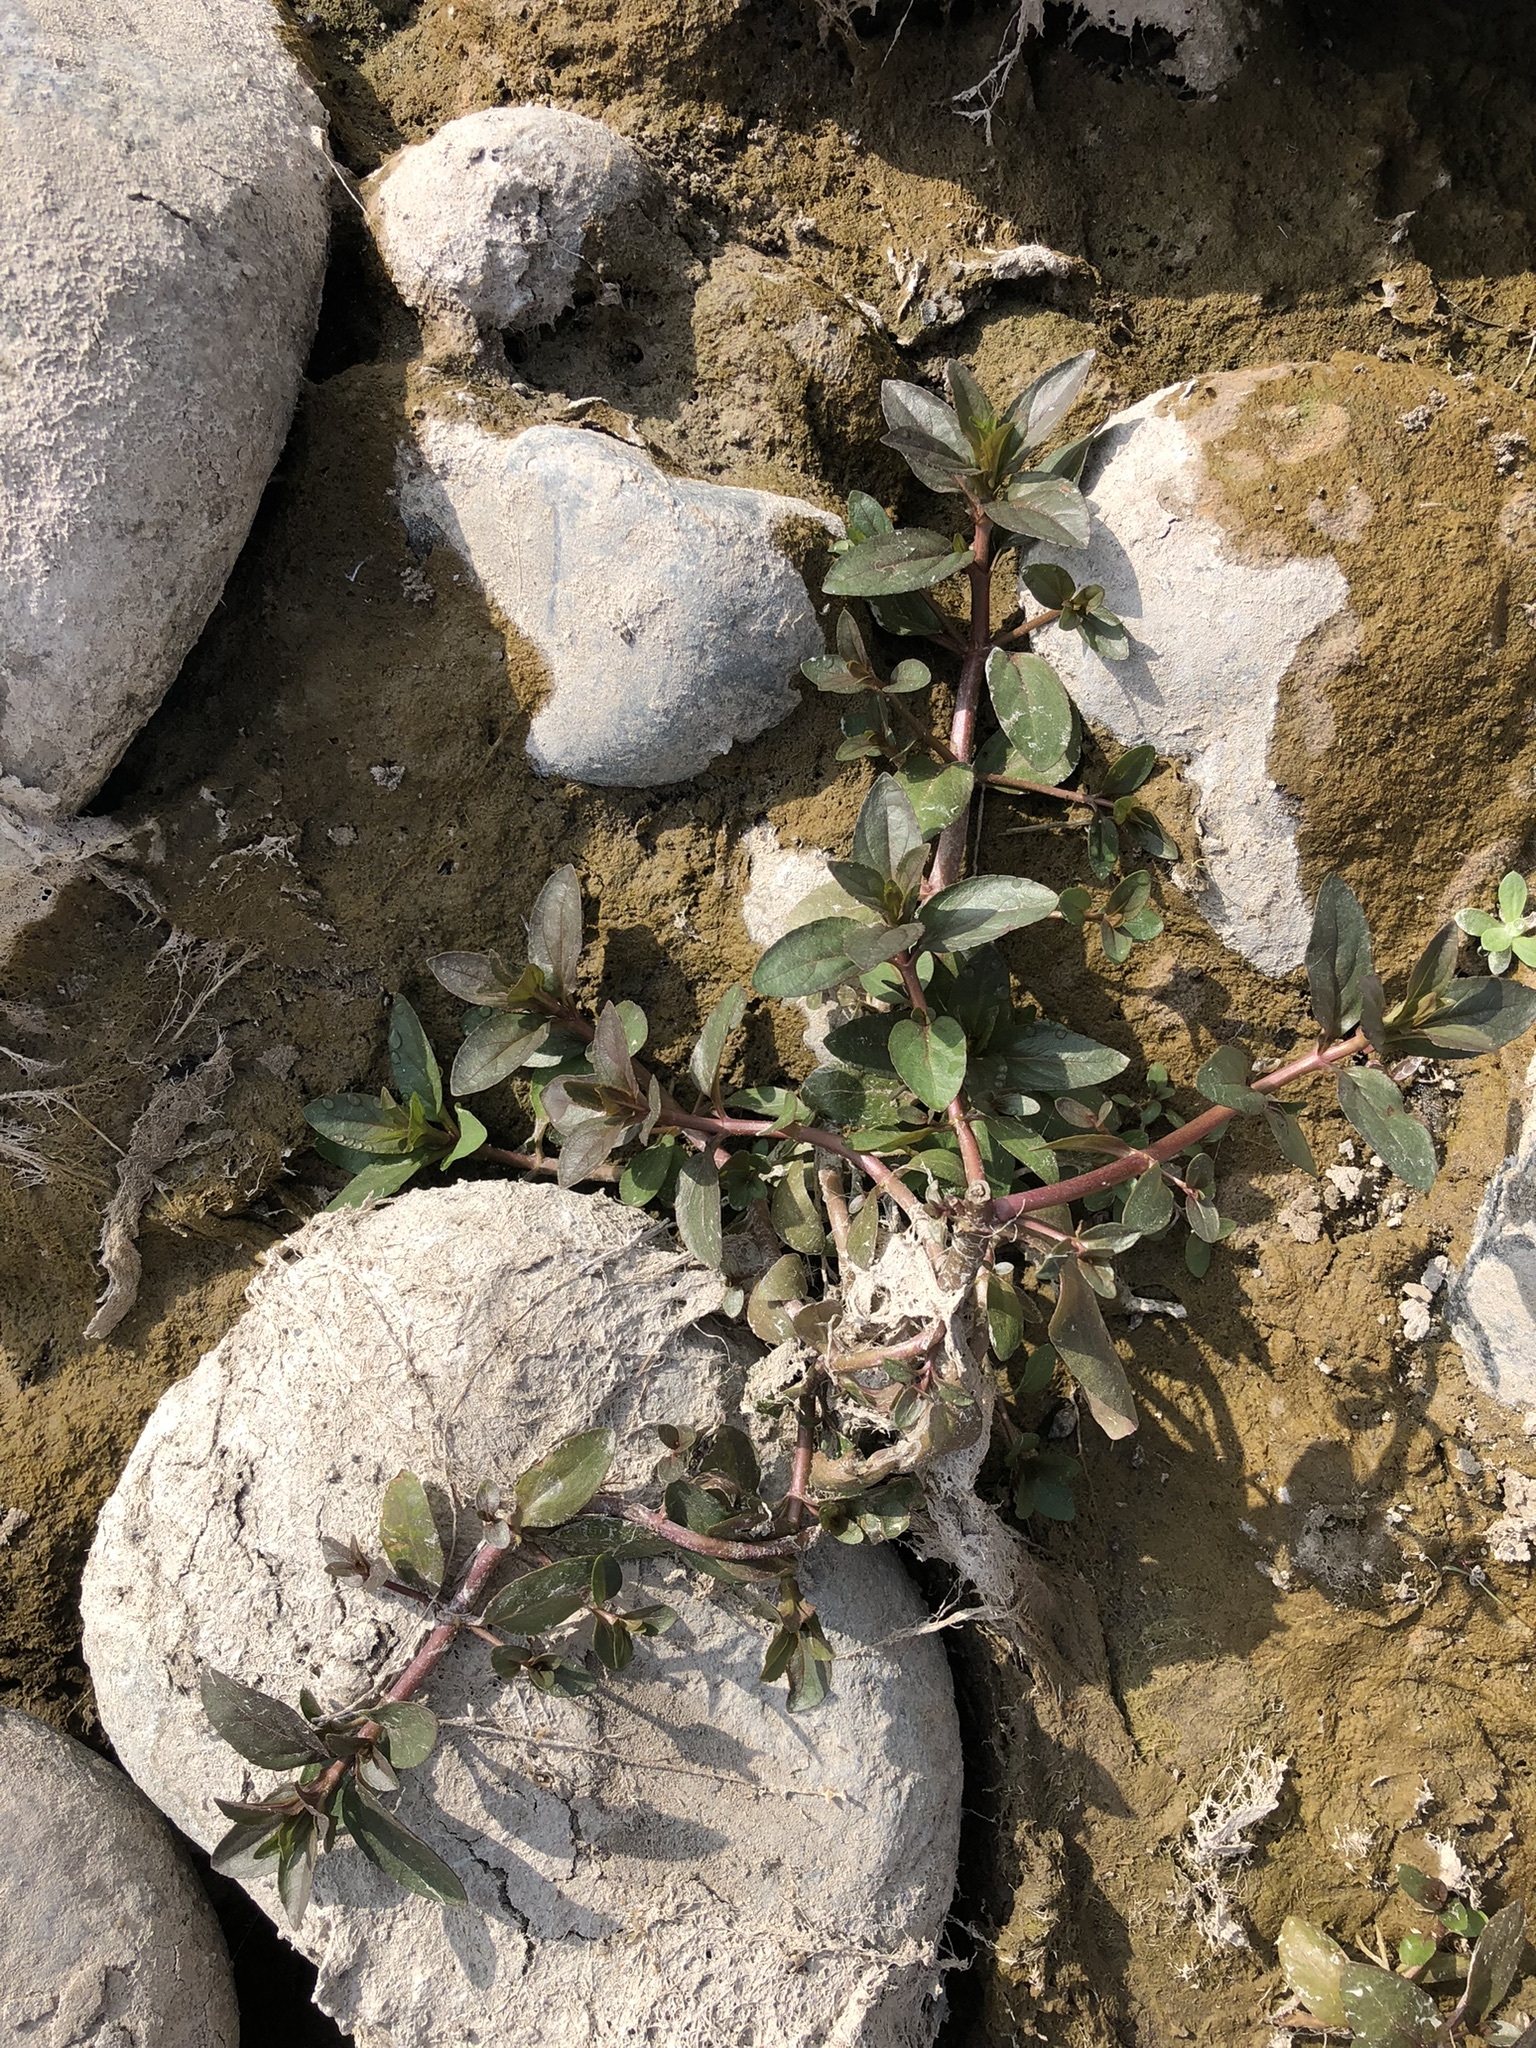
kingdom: Plantae
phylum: Tracheophyta
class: Magnoliopsida
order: Lamiales
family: Plantaginaceae
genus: Veronica
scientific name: Veronica anagallis-aquatica
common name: Water speedwell
